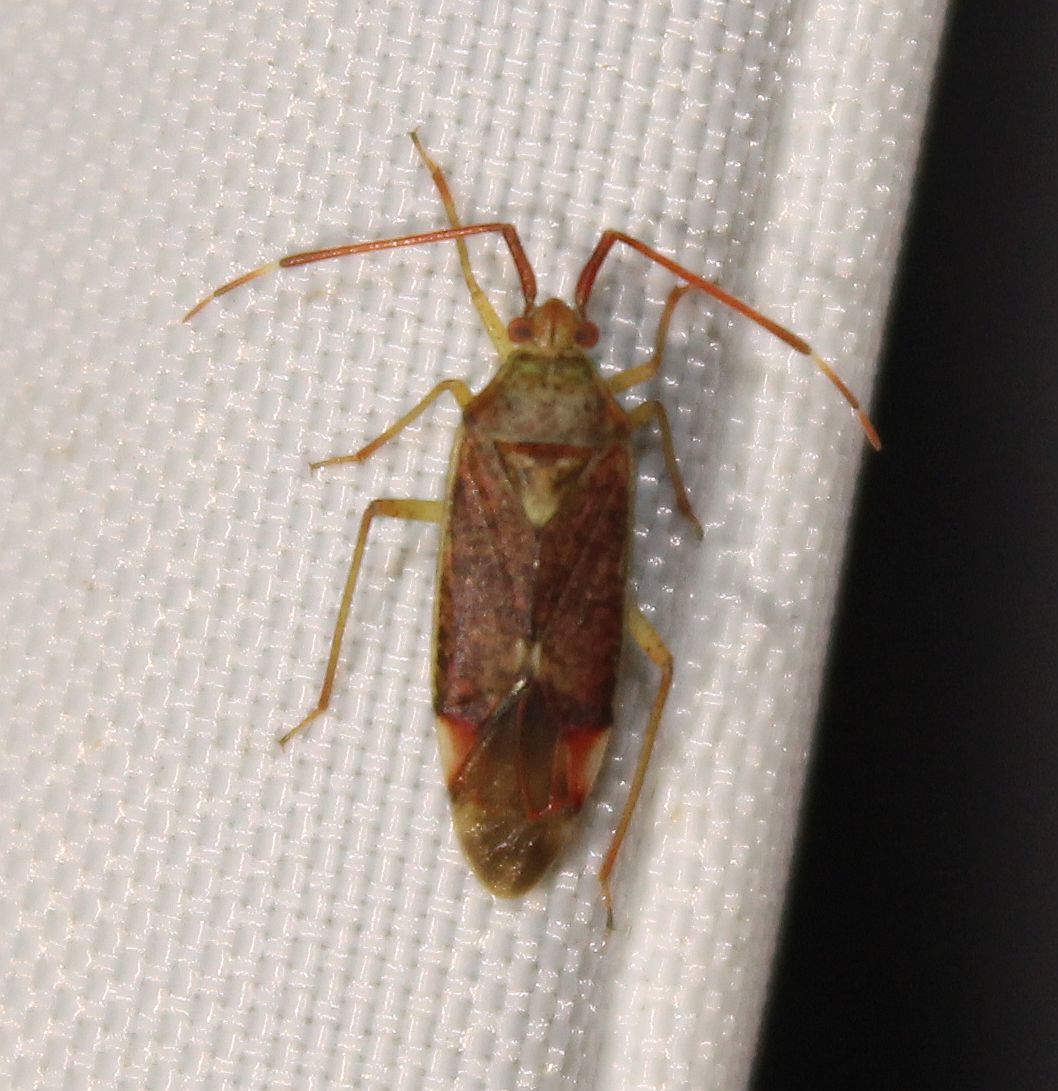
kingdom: Animalia
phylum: Arthropoda
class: Insecta
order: Hemiptera
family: Miridae
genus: Pantilius
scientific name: Pantilius tunicatus
